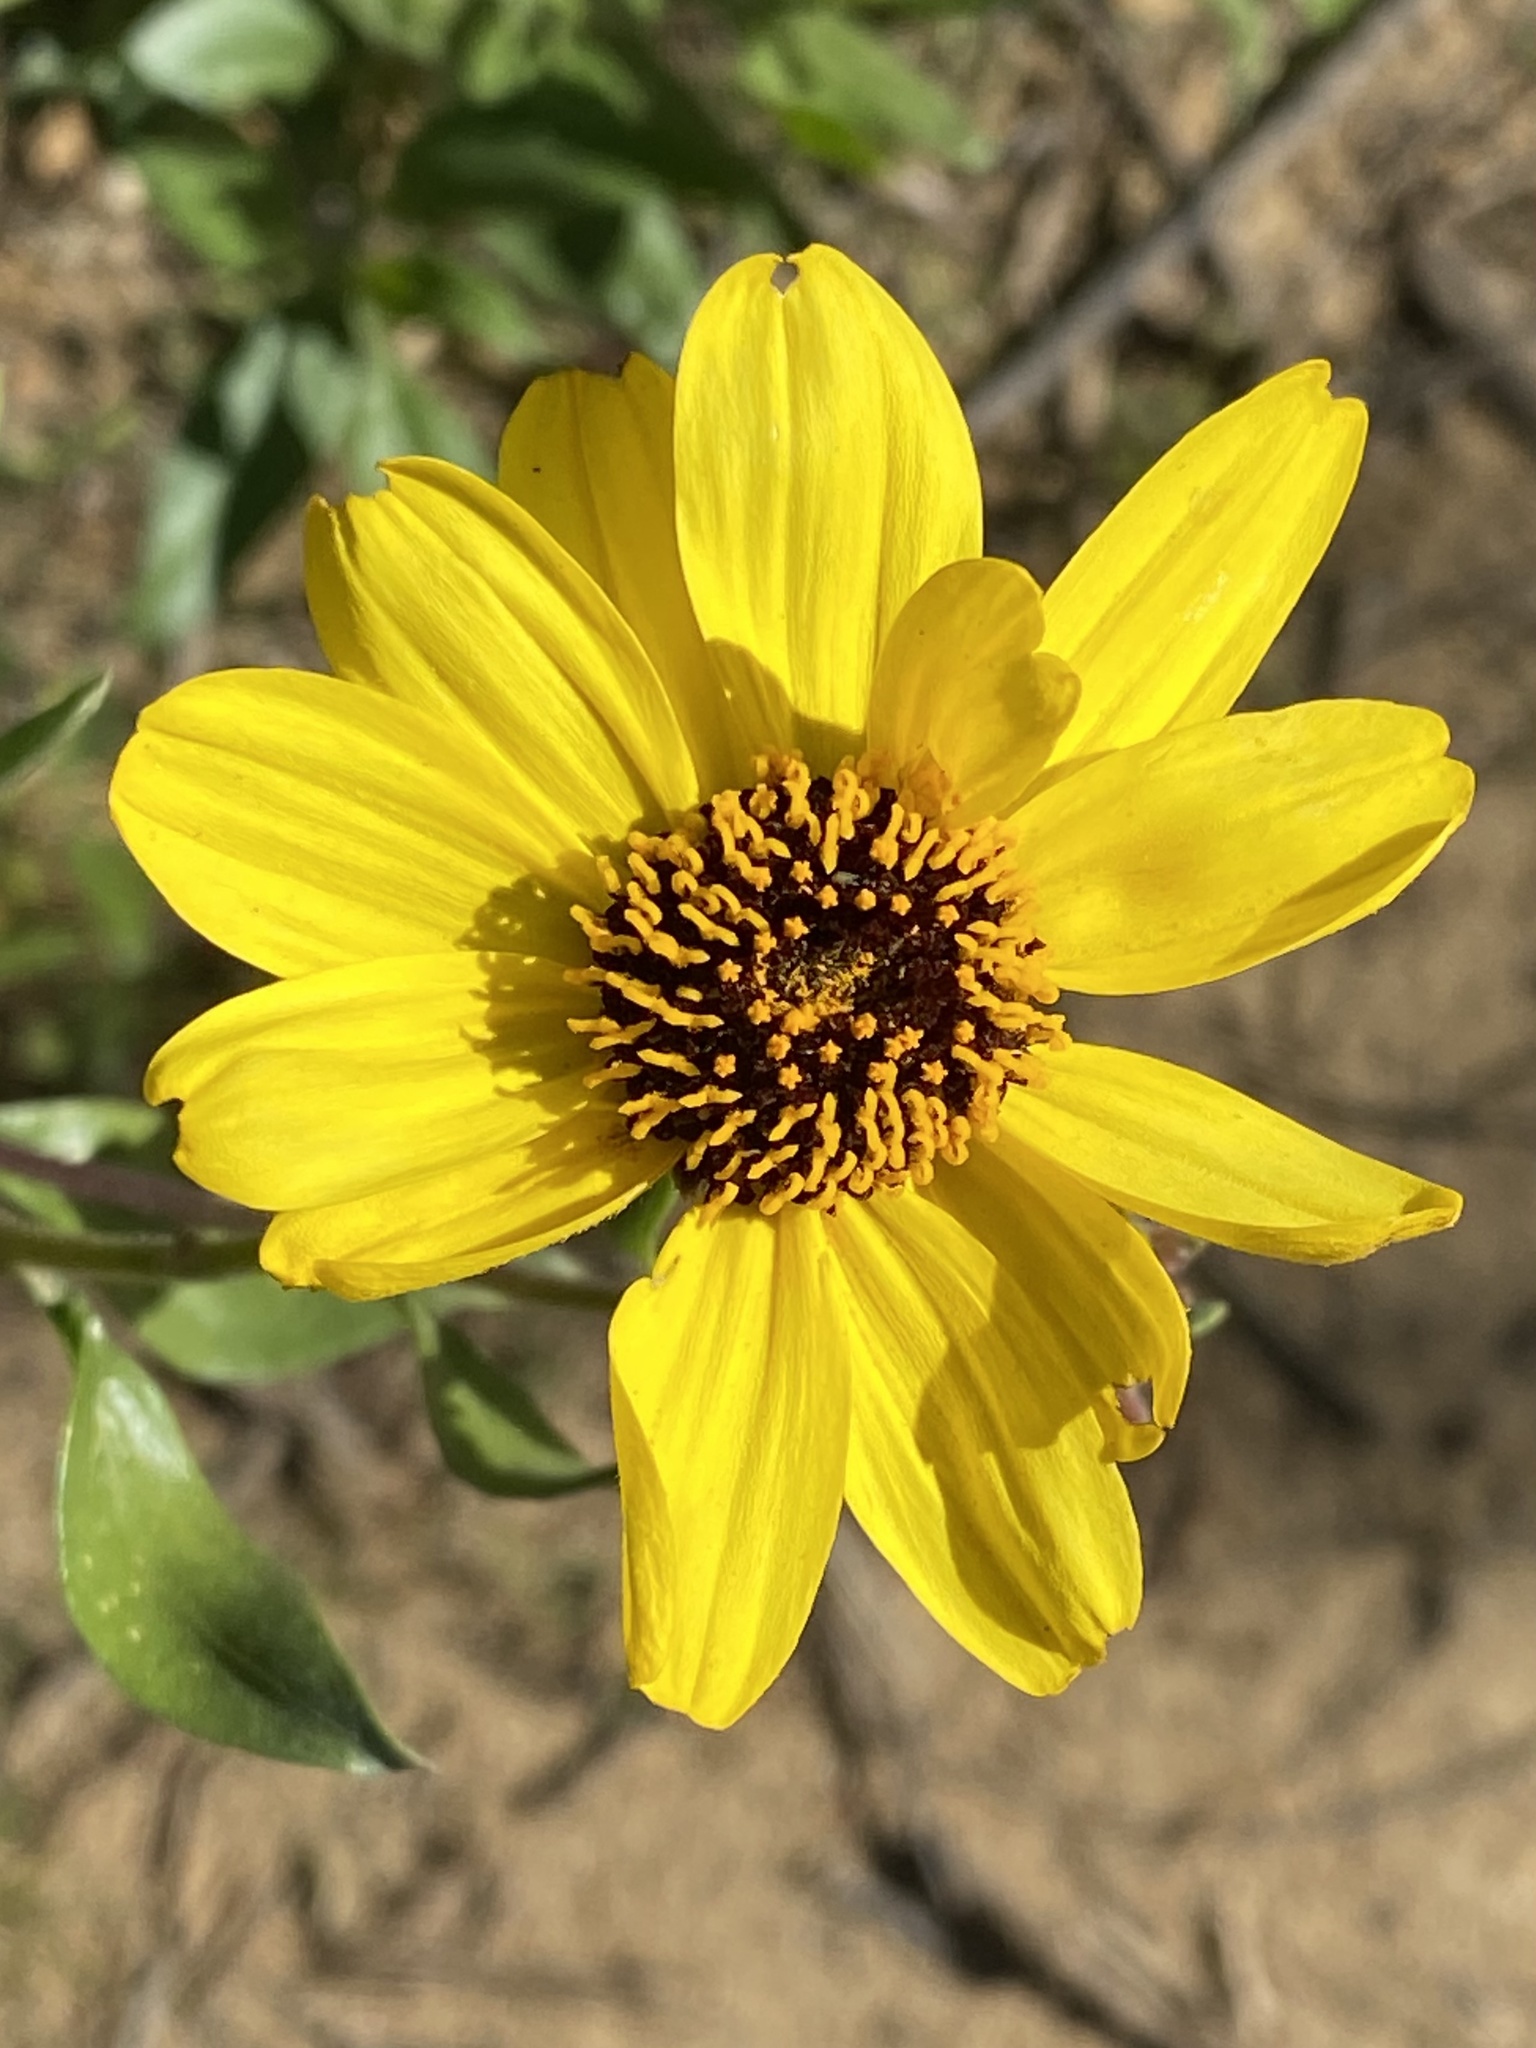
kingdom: Plantae
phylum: Tracheophyta
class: Magnoliopsida
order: Asterales
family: Asteraceae
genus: Encelia
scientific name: Encelia californica
